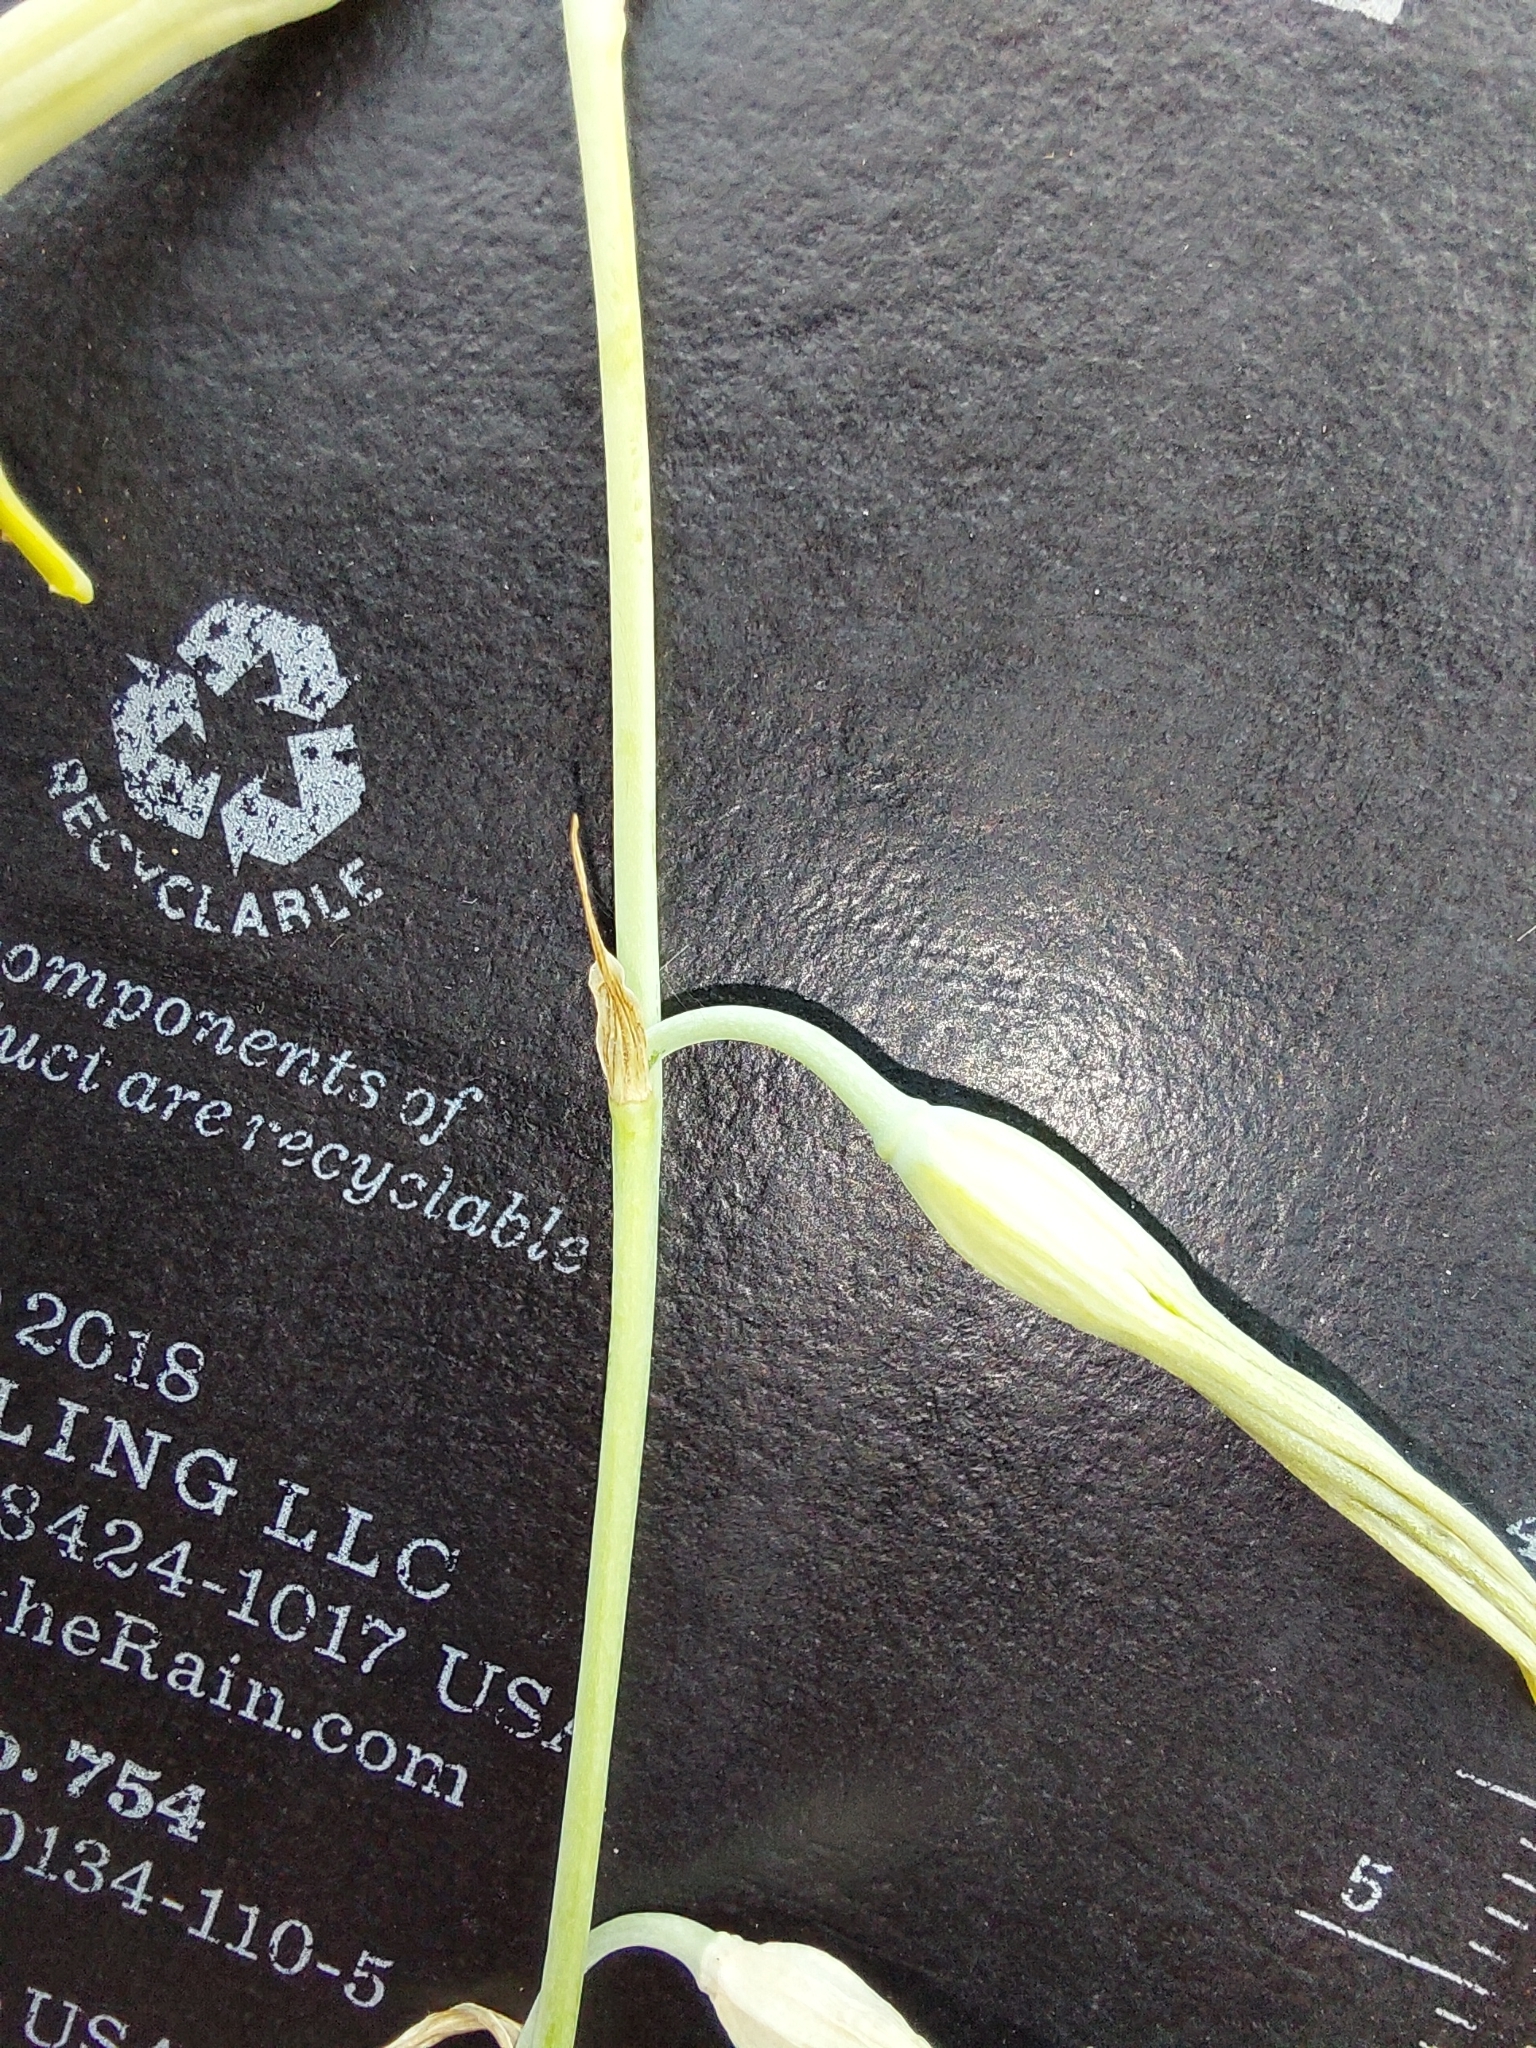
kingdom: Plantae
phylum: Tracheophyta
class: Liliopsida
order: Asparagales
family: Asparagaceae
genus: Dipcadi
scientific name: Dipcadi marlothii
